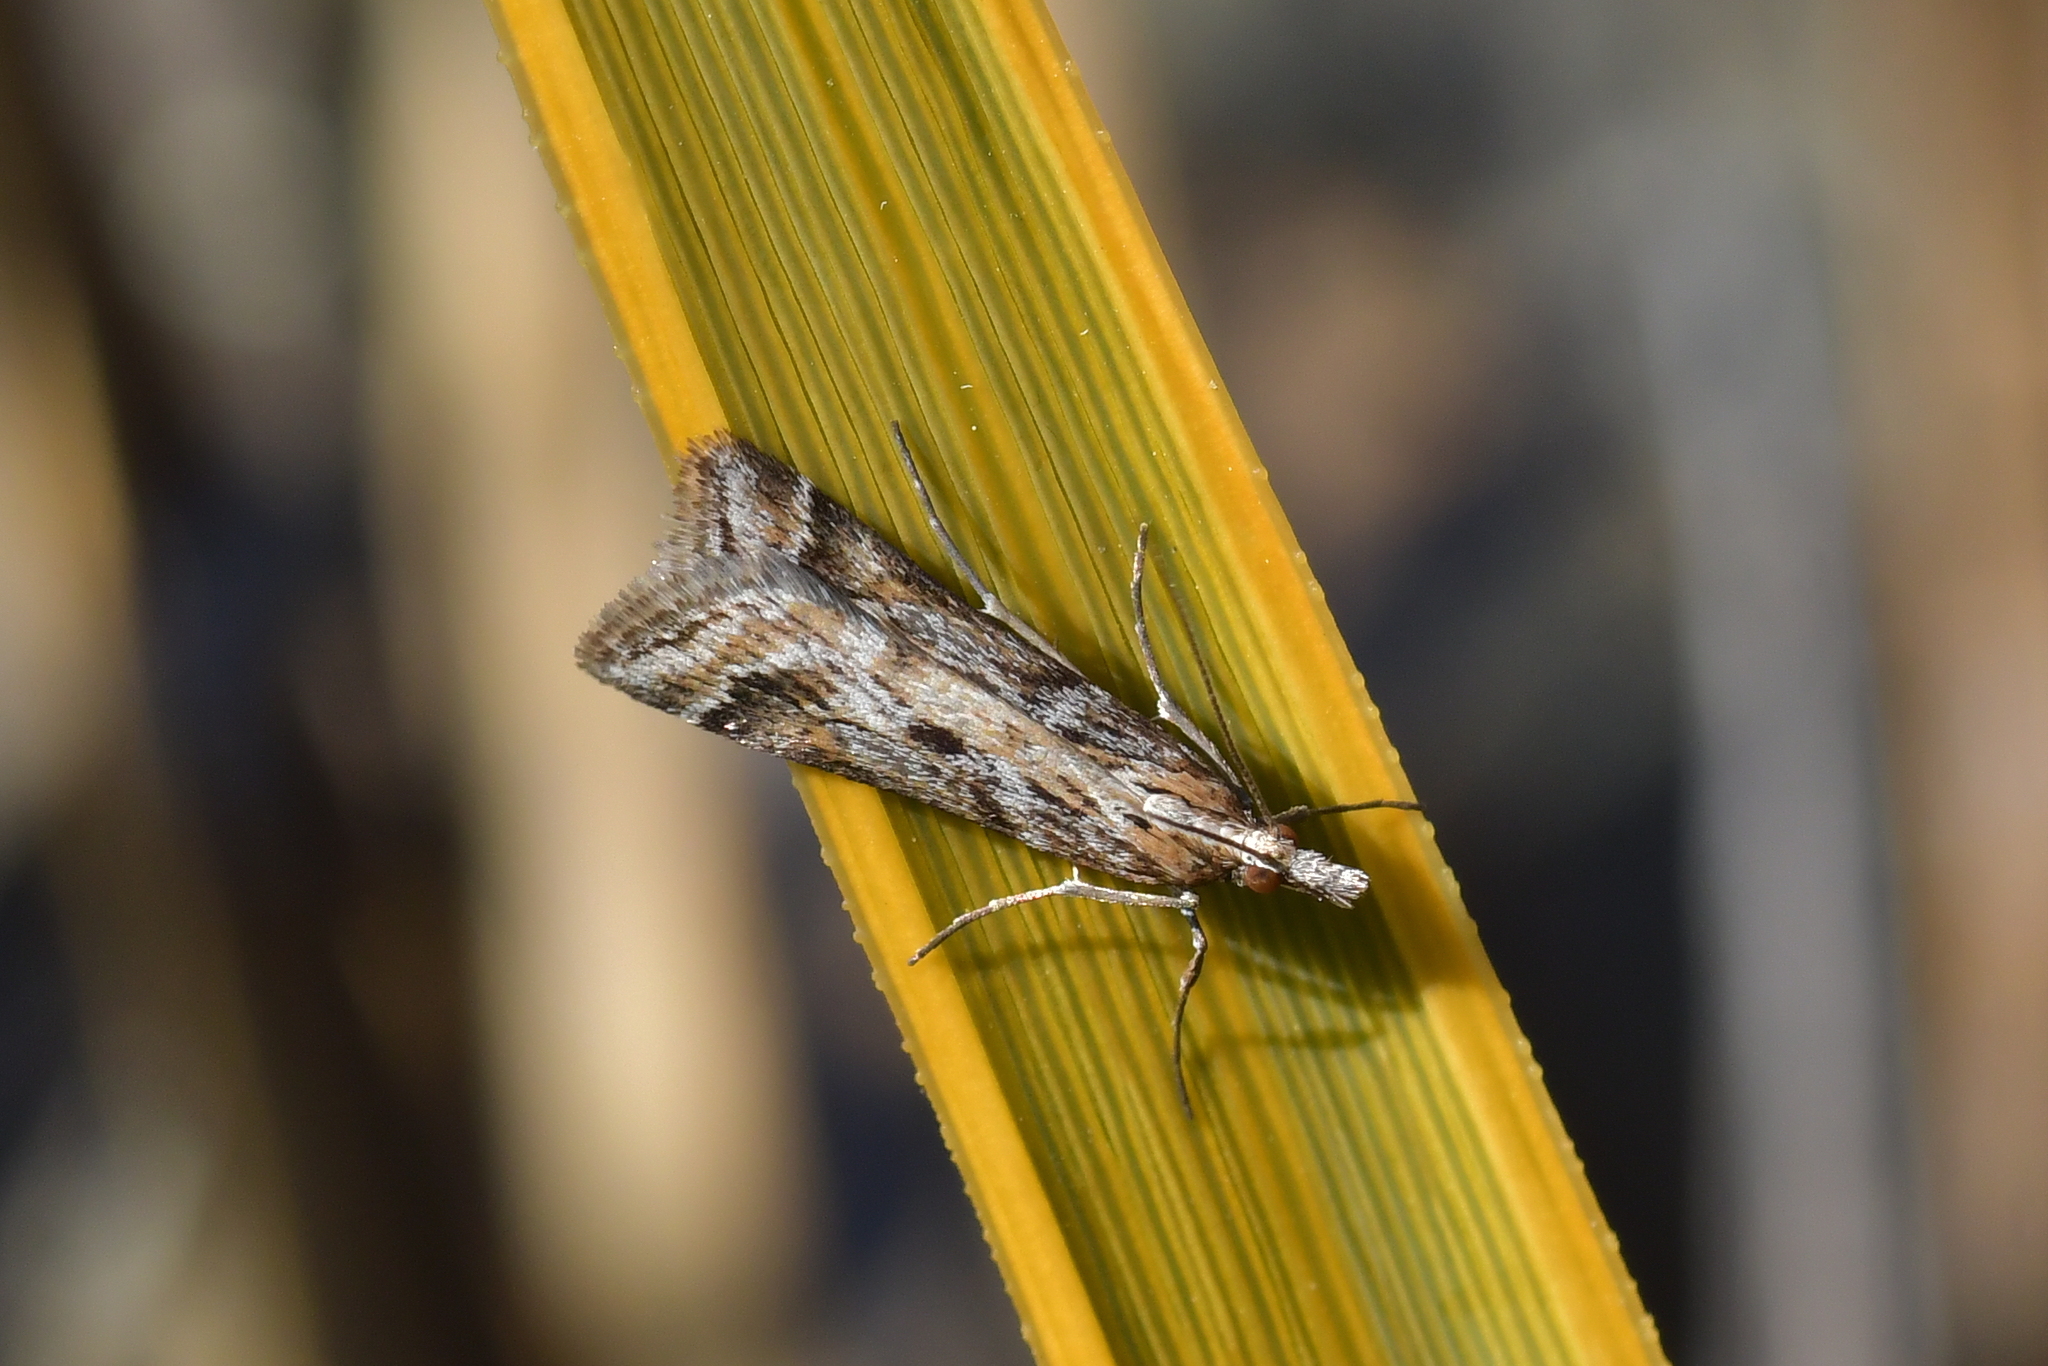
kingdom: Animalia
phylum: Arthropoda
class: Insecta
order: Lepidoptera
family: Crambidae
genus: Scoparia
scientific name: Scoparia exilis
